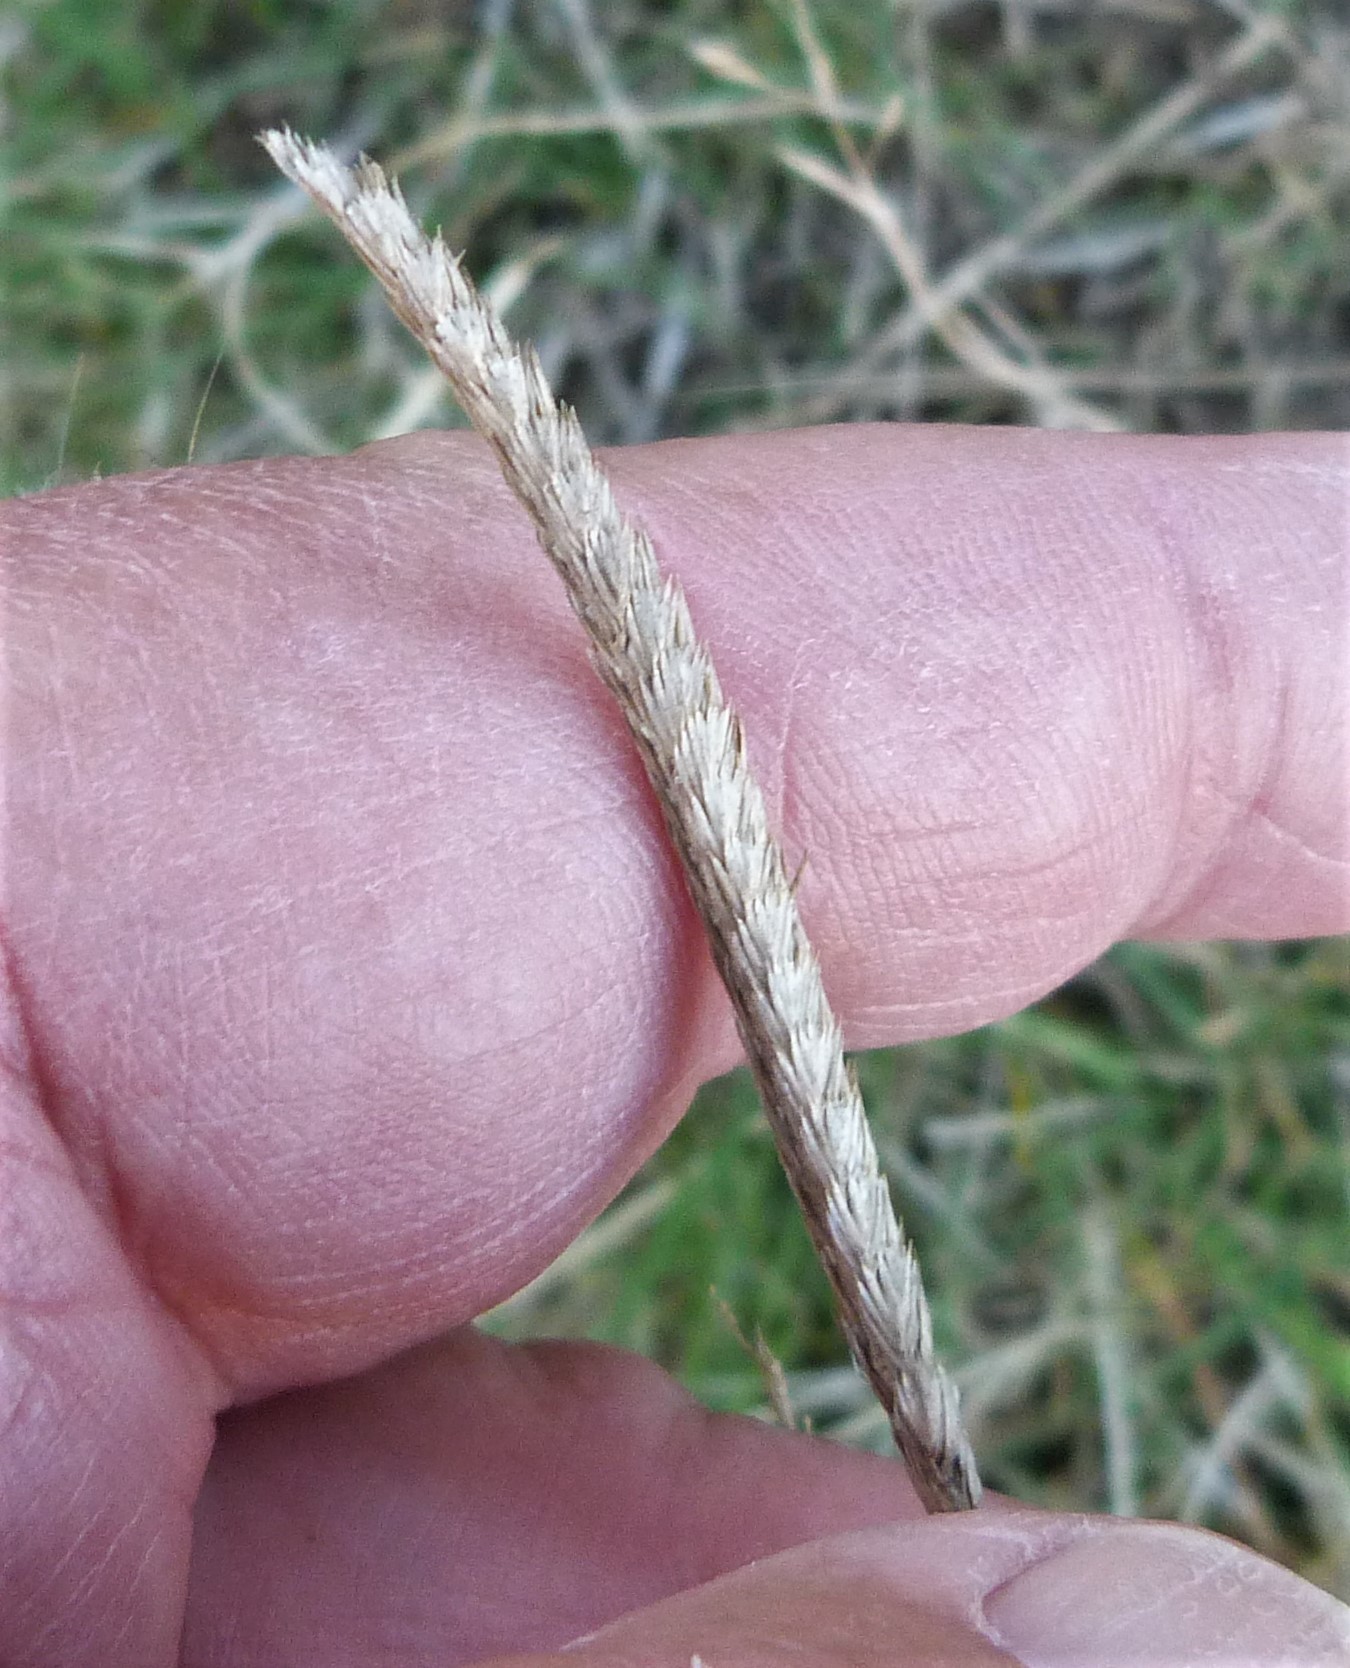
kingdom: Plantae
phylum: Tracheophyta
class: Liliopsida
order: Poales
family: Poaceae
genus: Cynosurus
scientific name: Cynosurus cristatus
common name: Crested dog's-tail
